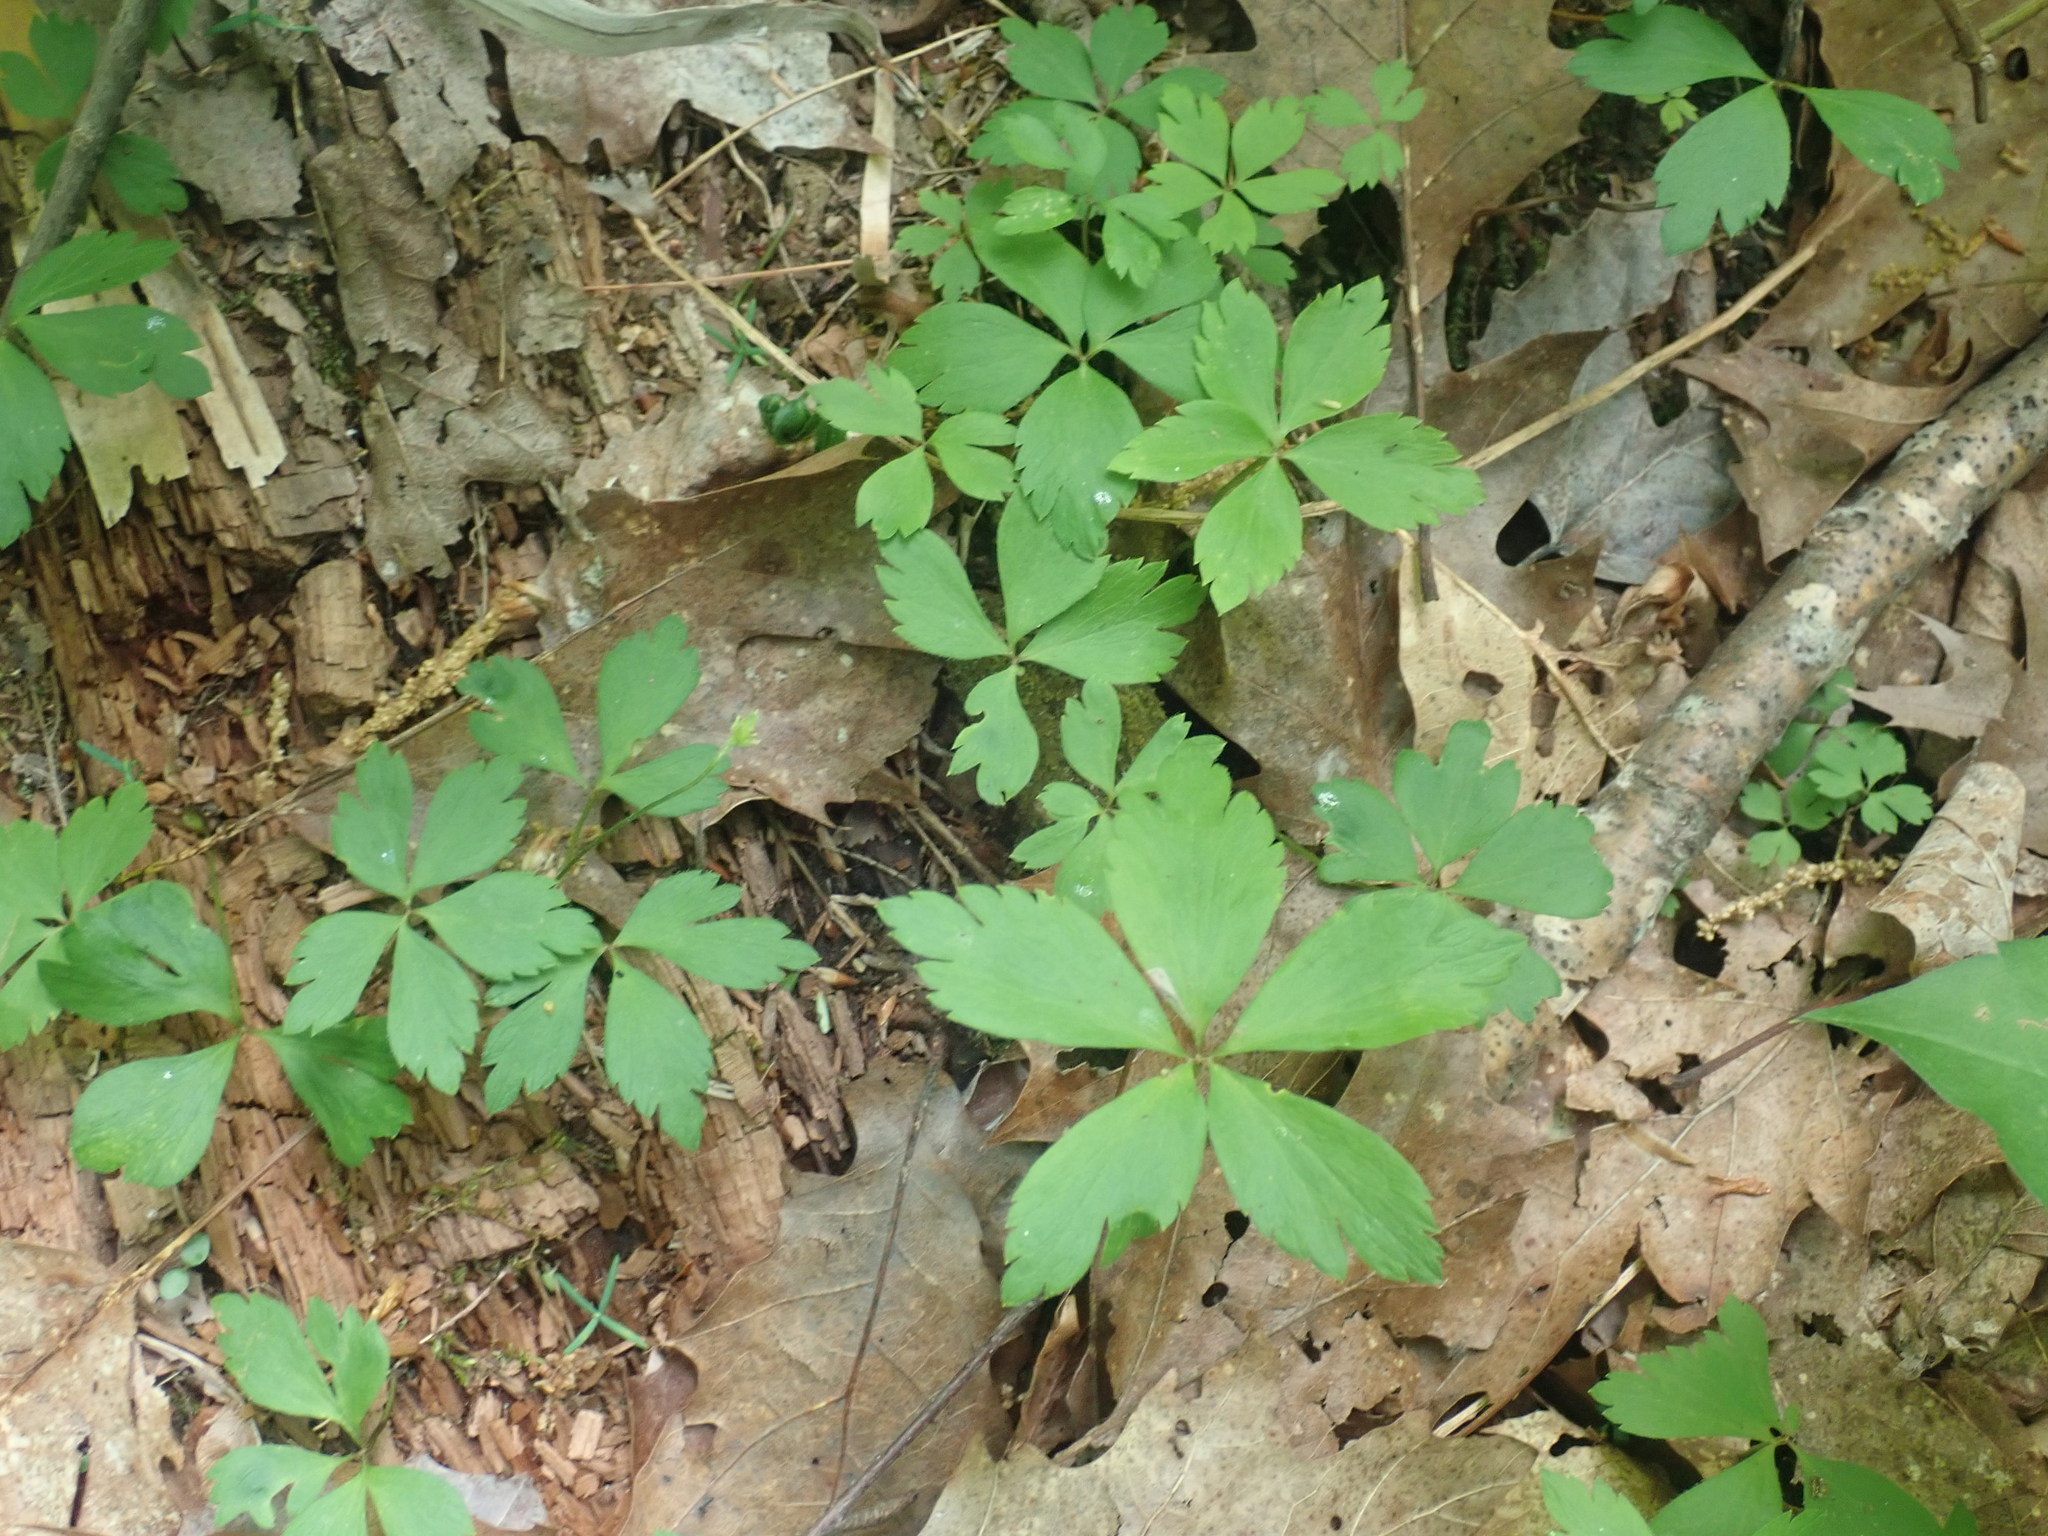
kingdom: Plantae
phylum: Tracheophyta
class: Magnoliopsida
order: Ranunculales
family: Ranunculaceae
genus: Anemone
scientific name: Anemone quinquefolia
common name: Wood anemone
